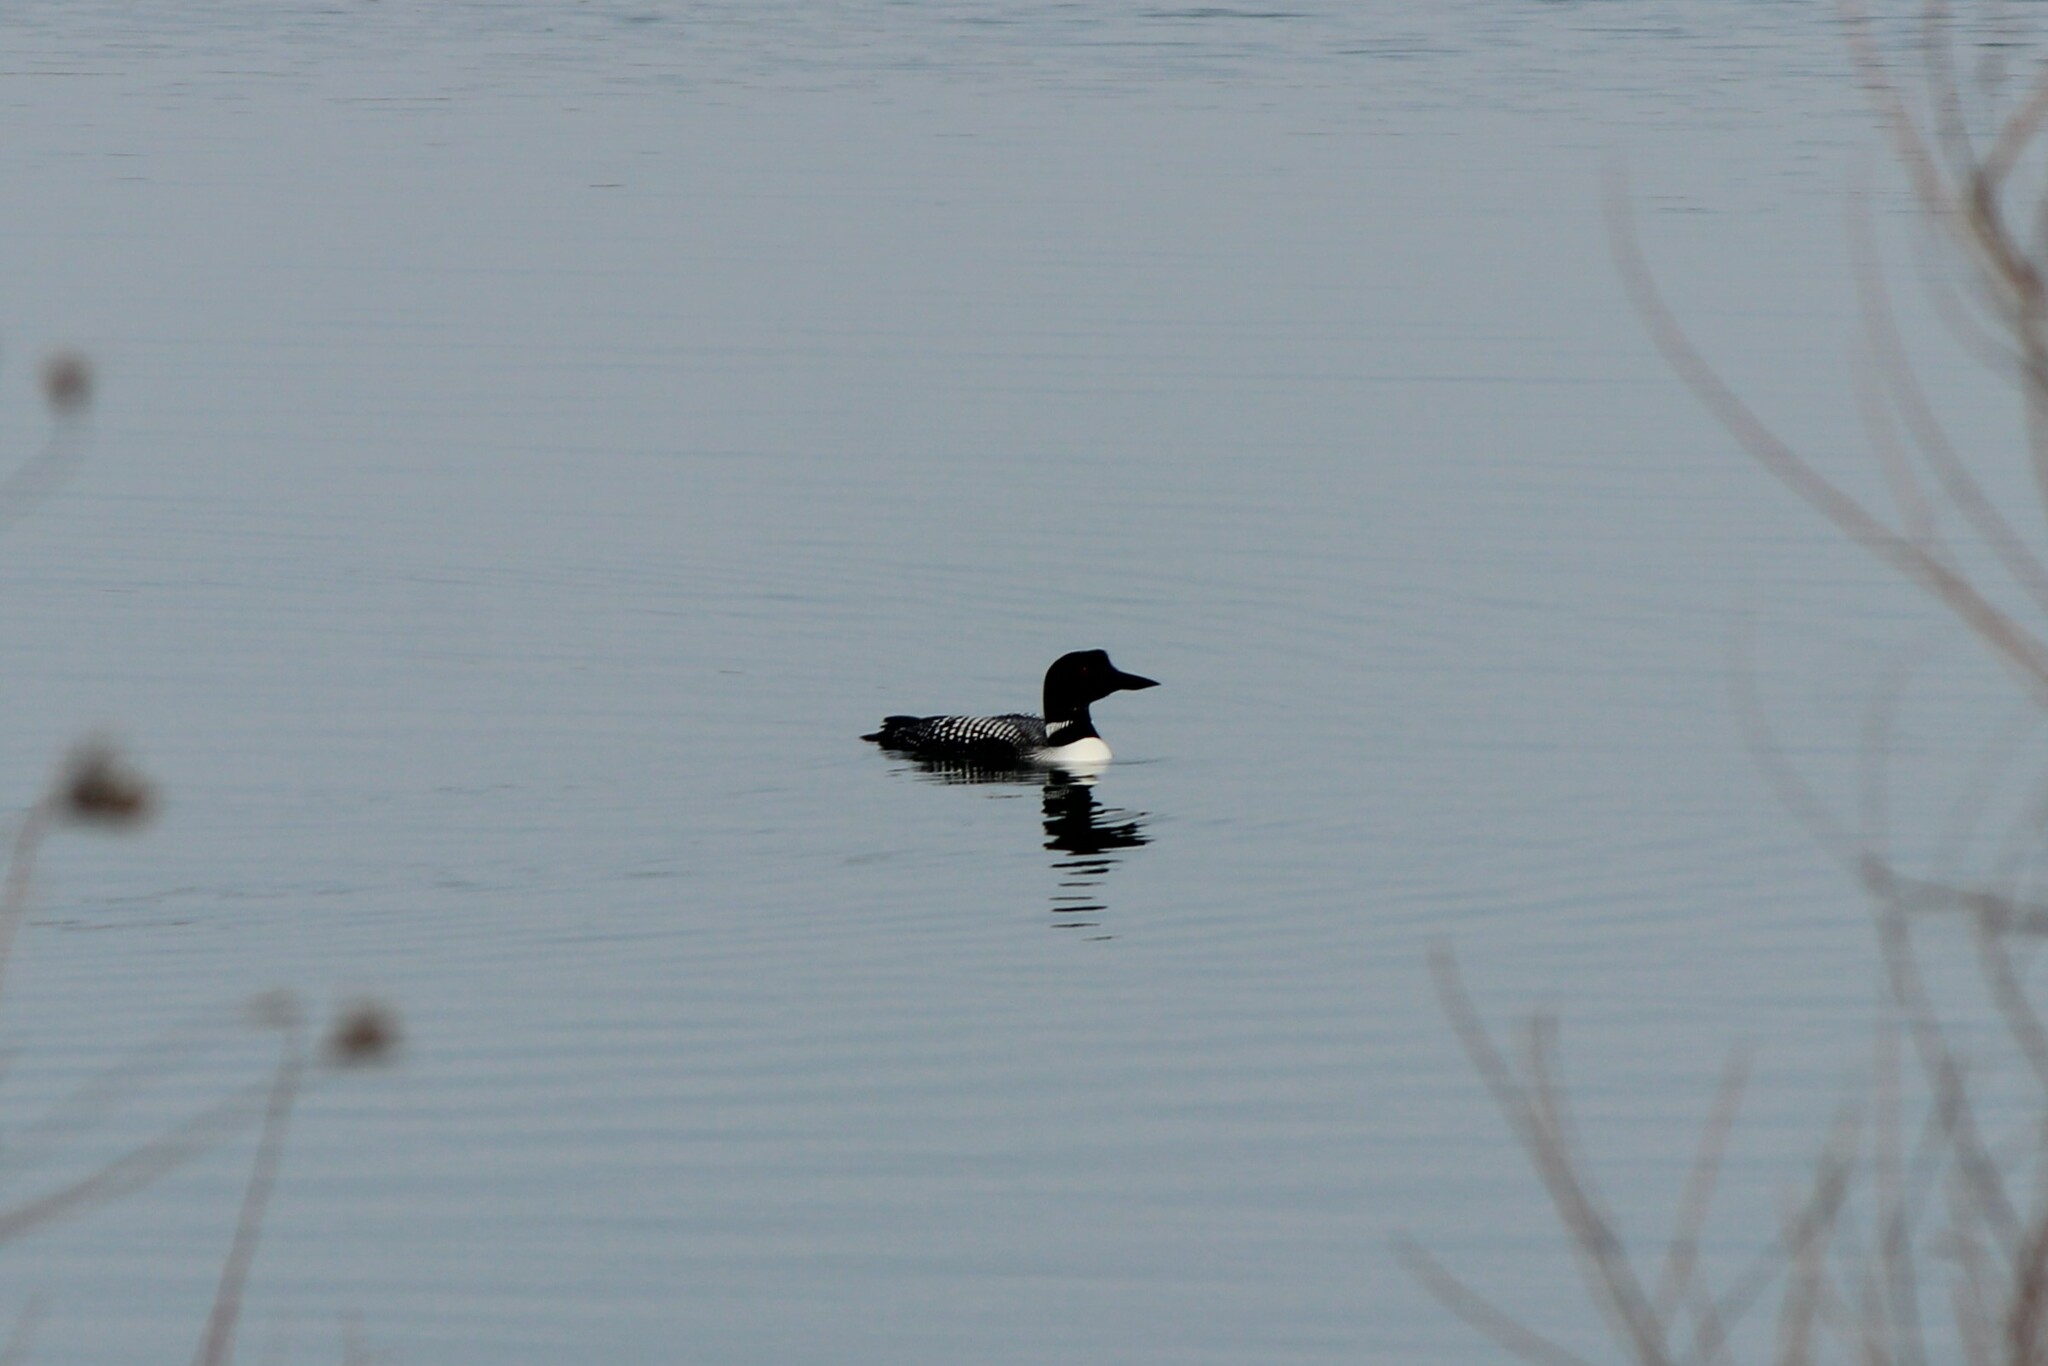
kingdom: Animalia
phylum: Chordata
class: Aves
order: Gaviiformes
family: Gaviidae
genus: Gavia
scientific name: Gavia immer
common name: Common loon
